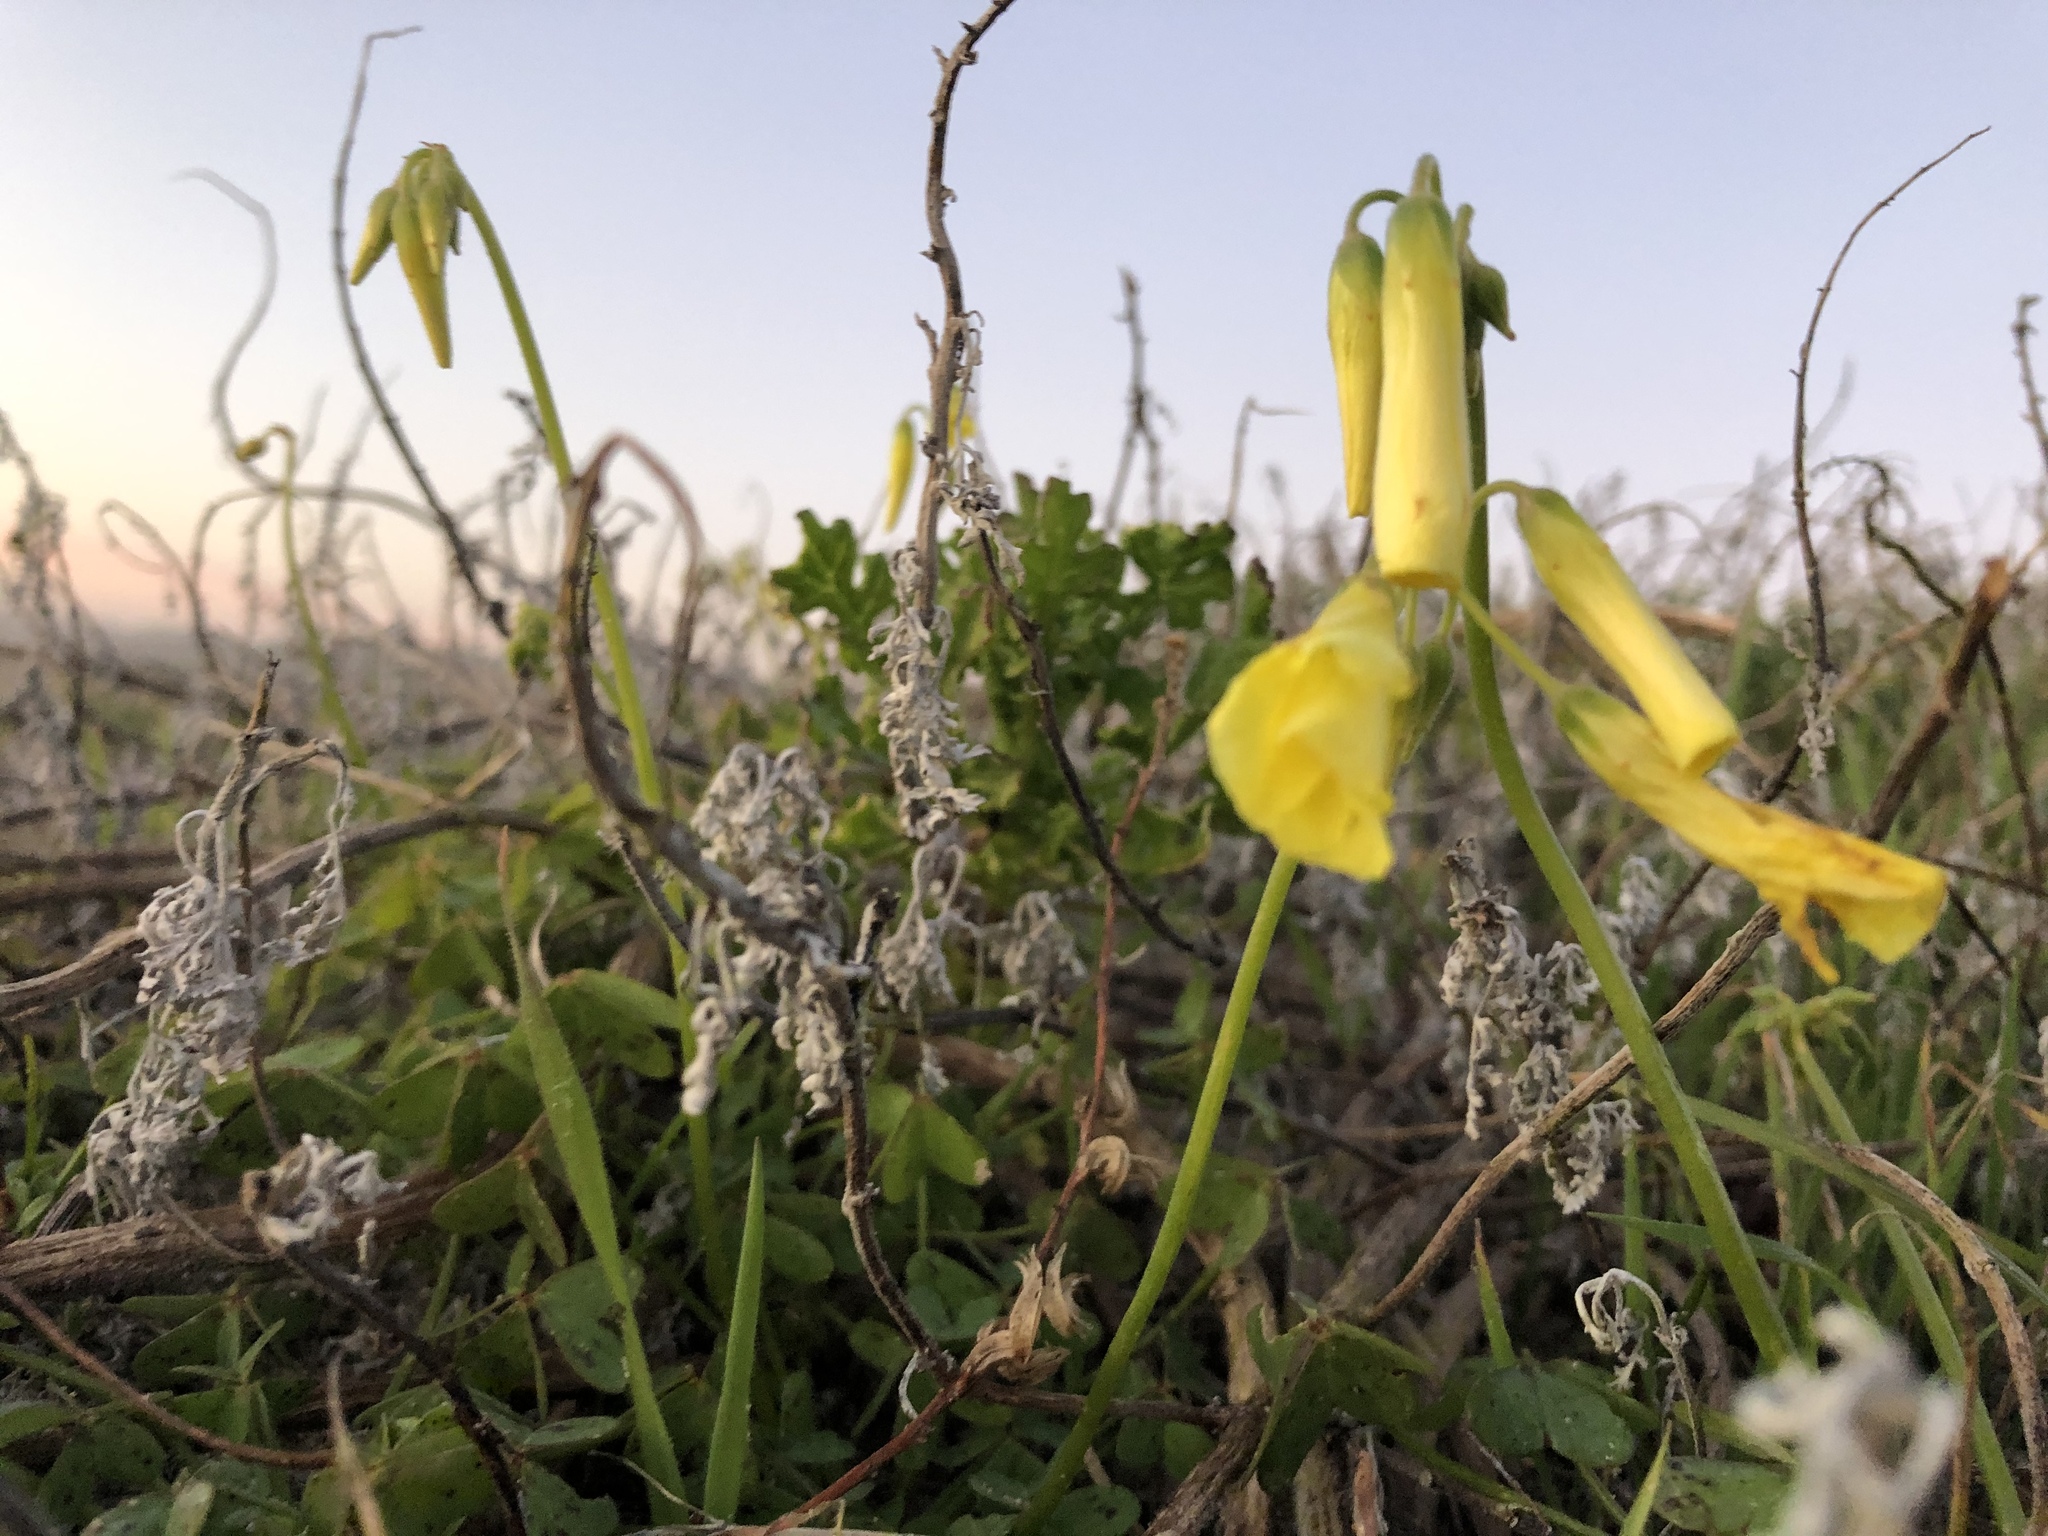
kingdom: Plantae
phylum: Tracheophyta
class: Magnoliopsida
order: Oxalidales
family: Oxalidaceae
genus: Oxalis
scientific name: Oxalis pes-caprae
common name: Bermuda-buttercup
